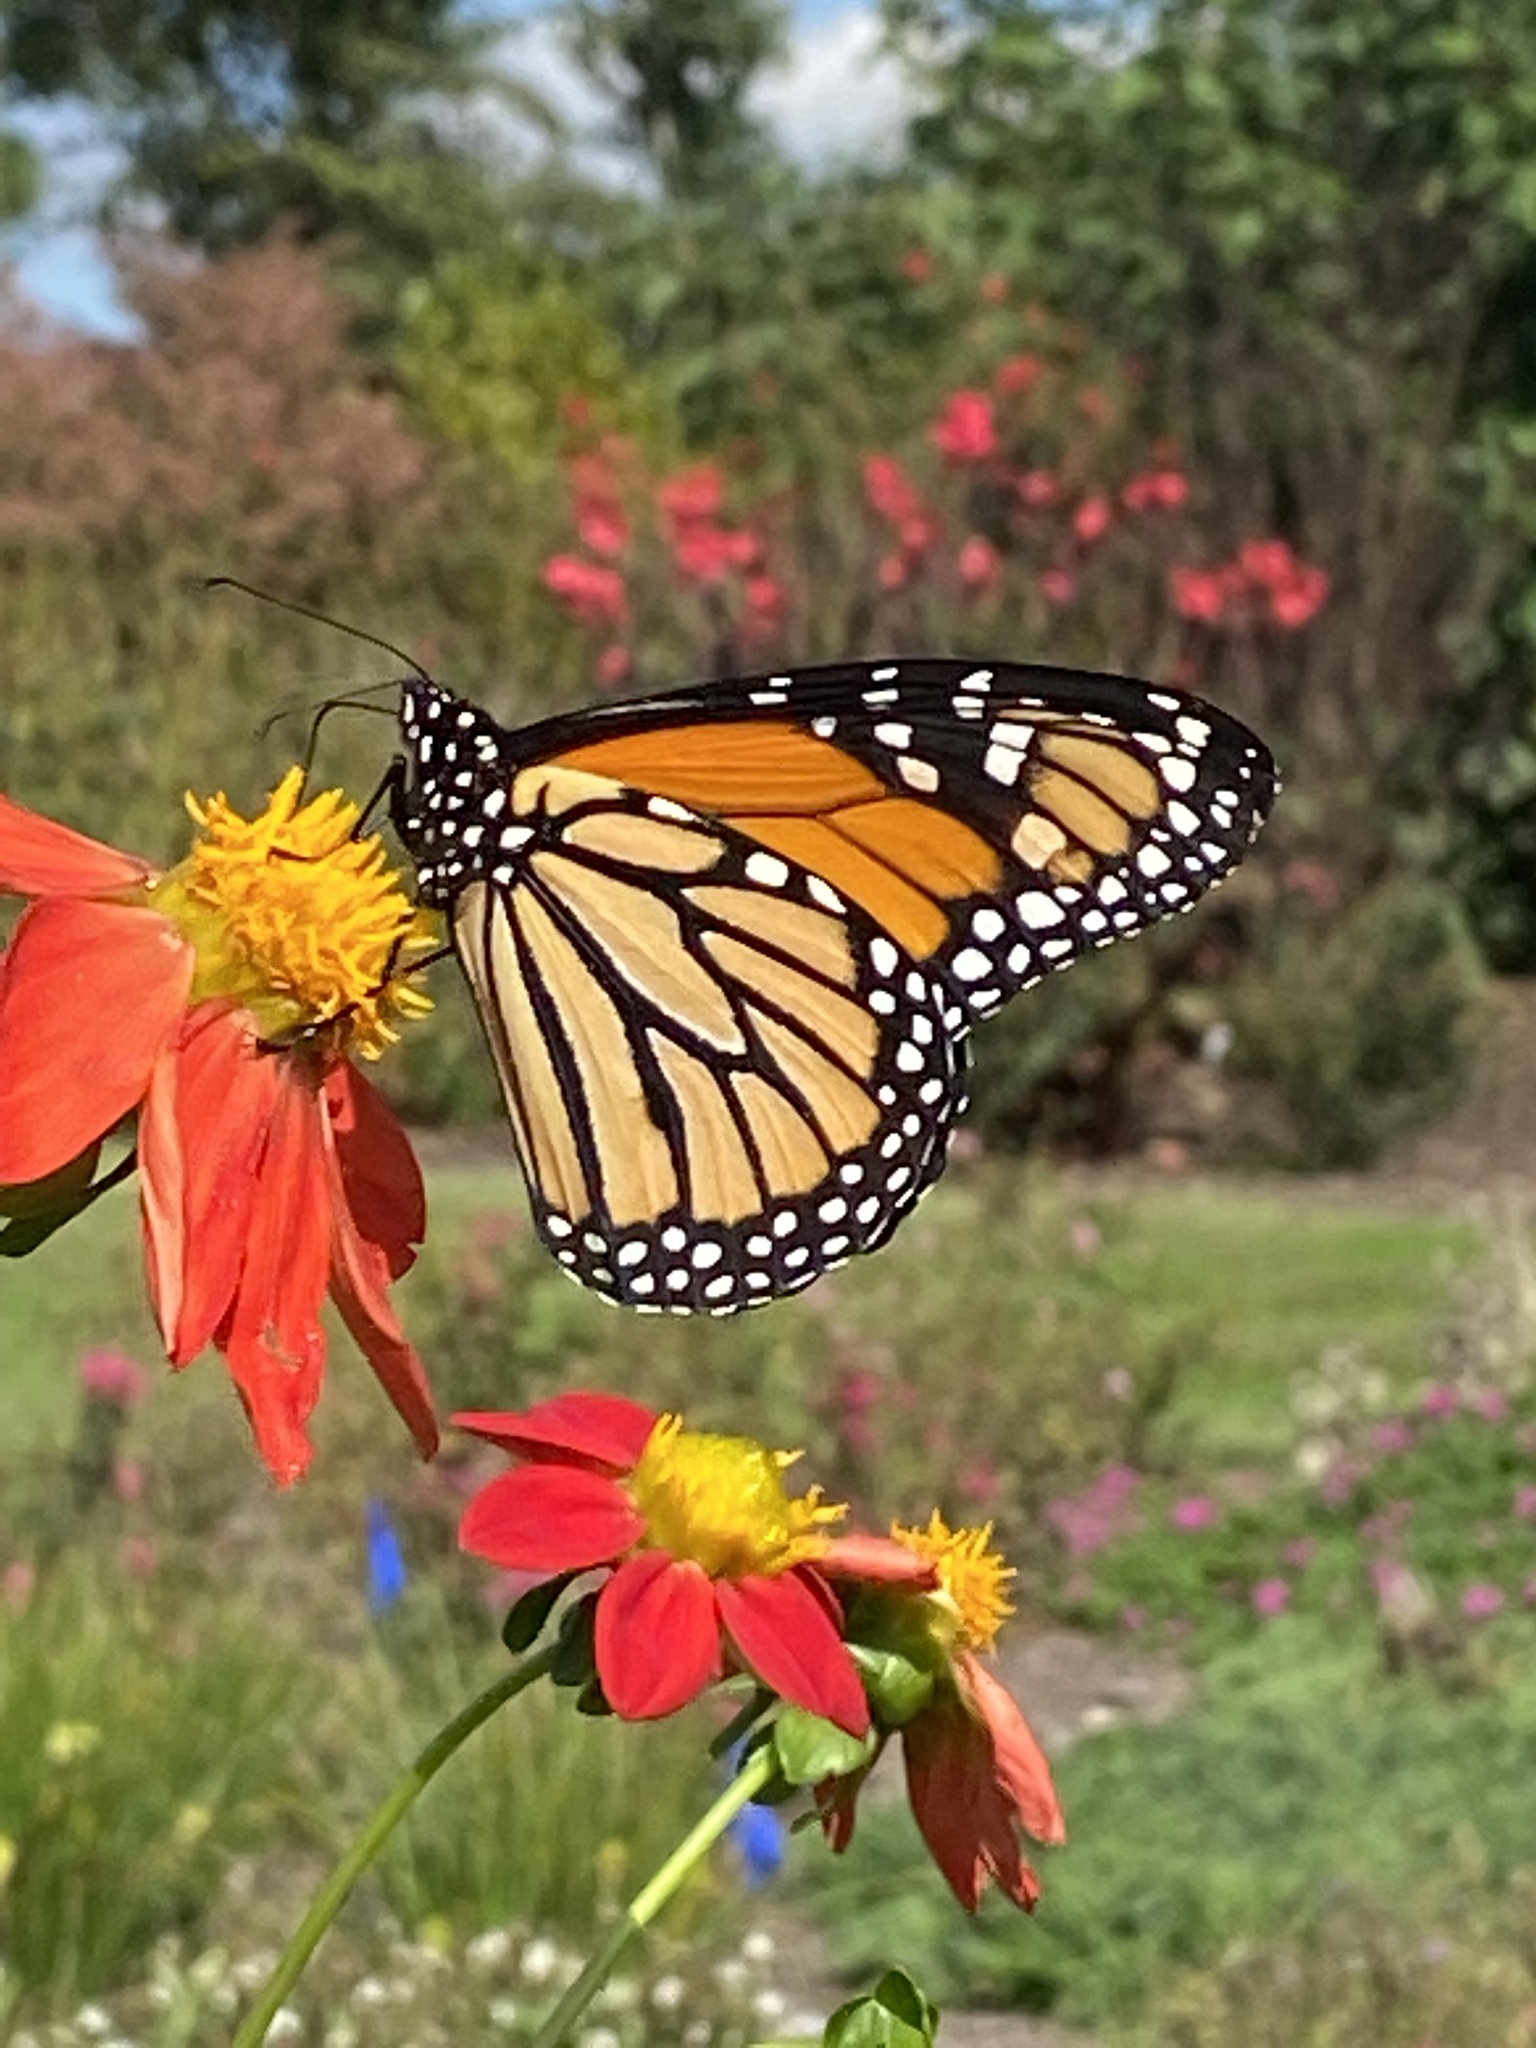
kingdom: Animalia
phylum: Arthropoda
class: Insecta
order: Lepidoptera
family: Nymphalidae
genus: Danaus
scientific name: Danaus plexippus
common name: Monarch
